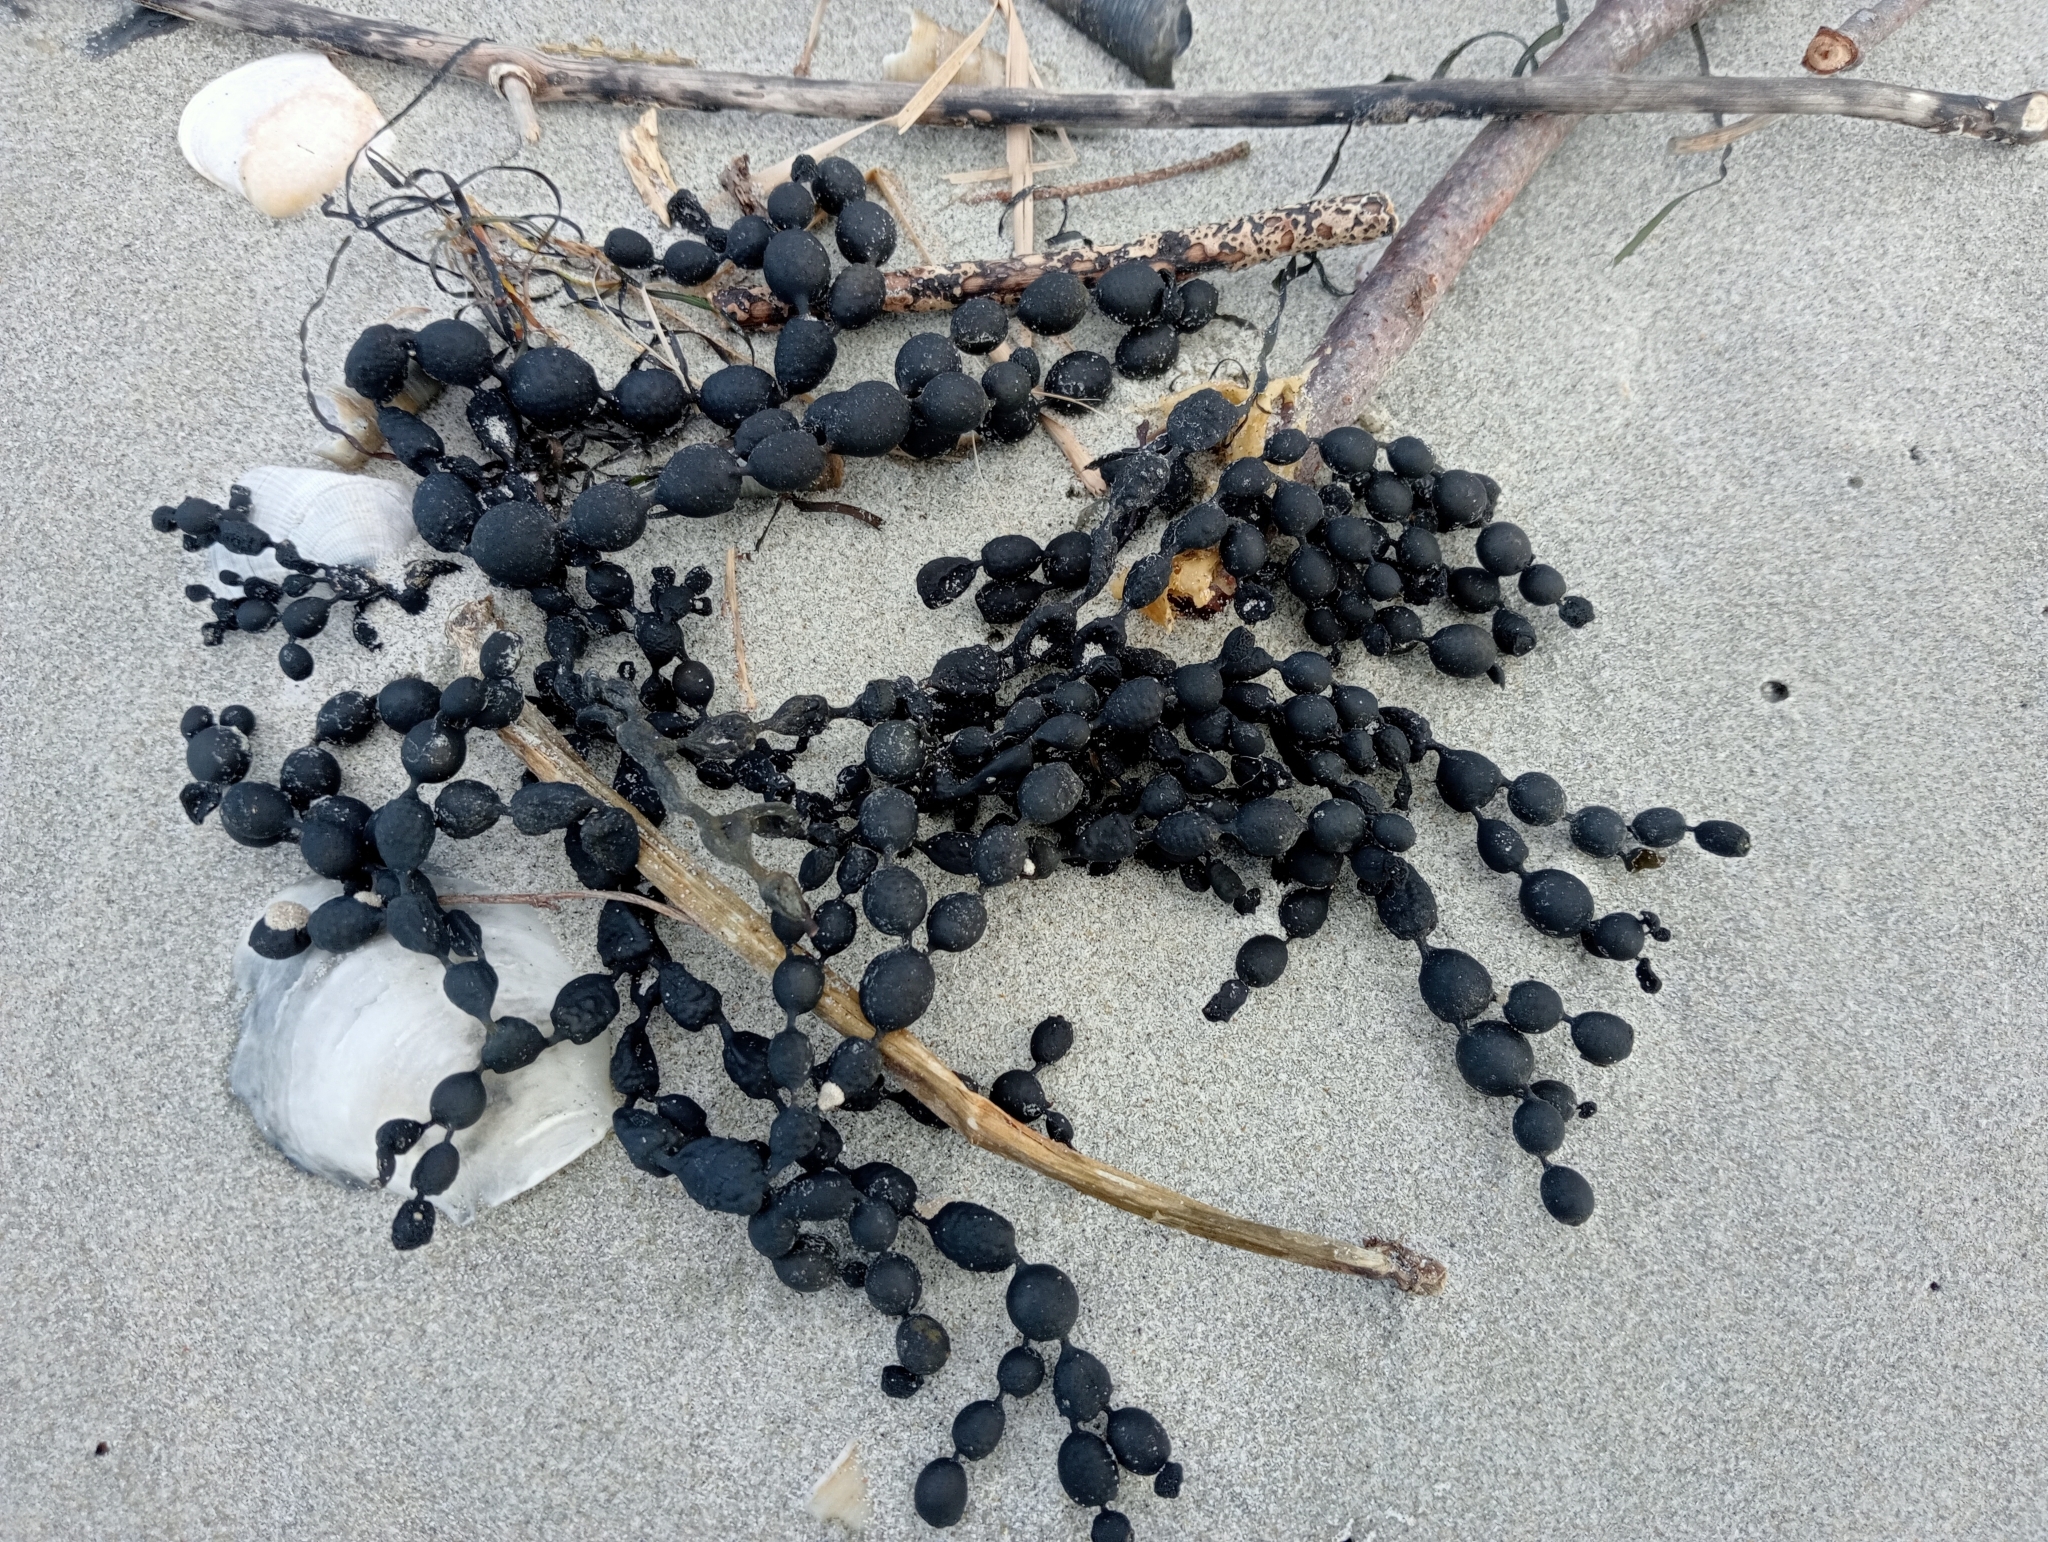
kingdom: Chromista
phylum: Ochrophyta
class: Phaeophyceae
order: Fucales
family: Hormosiraceae
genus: Hormosira
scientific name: Hormosira banksii
